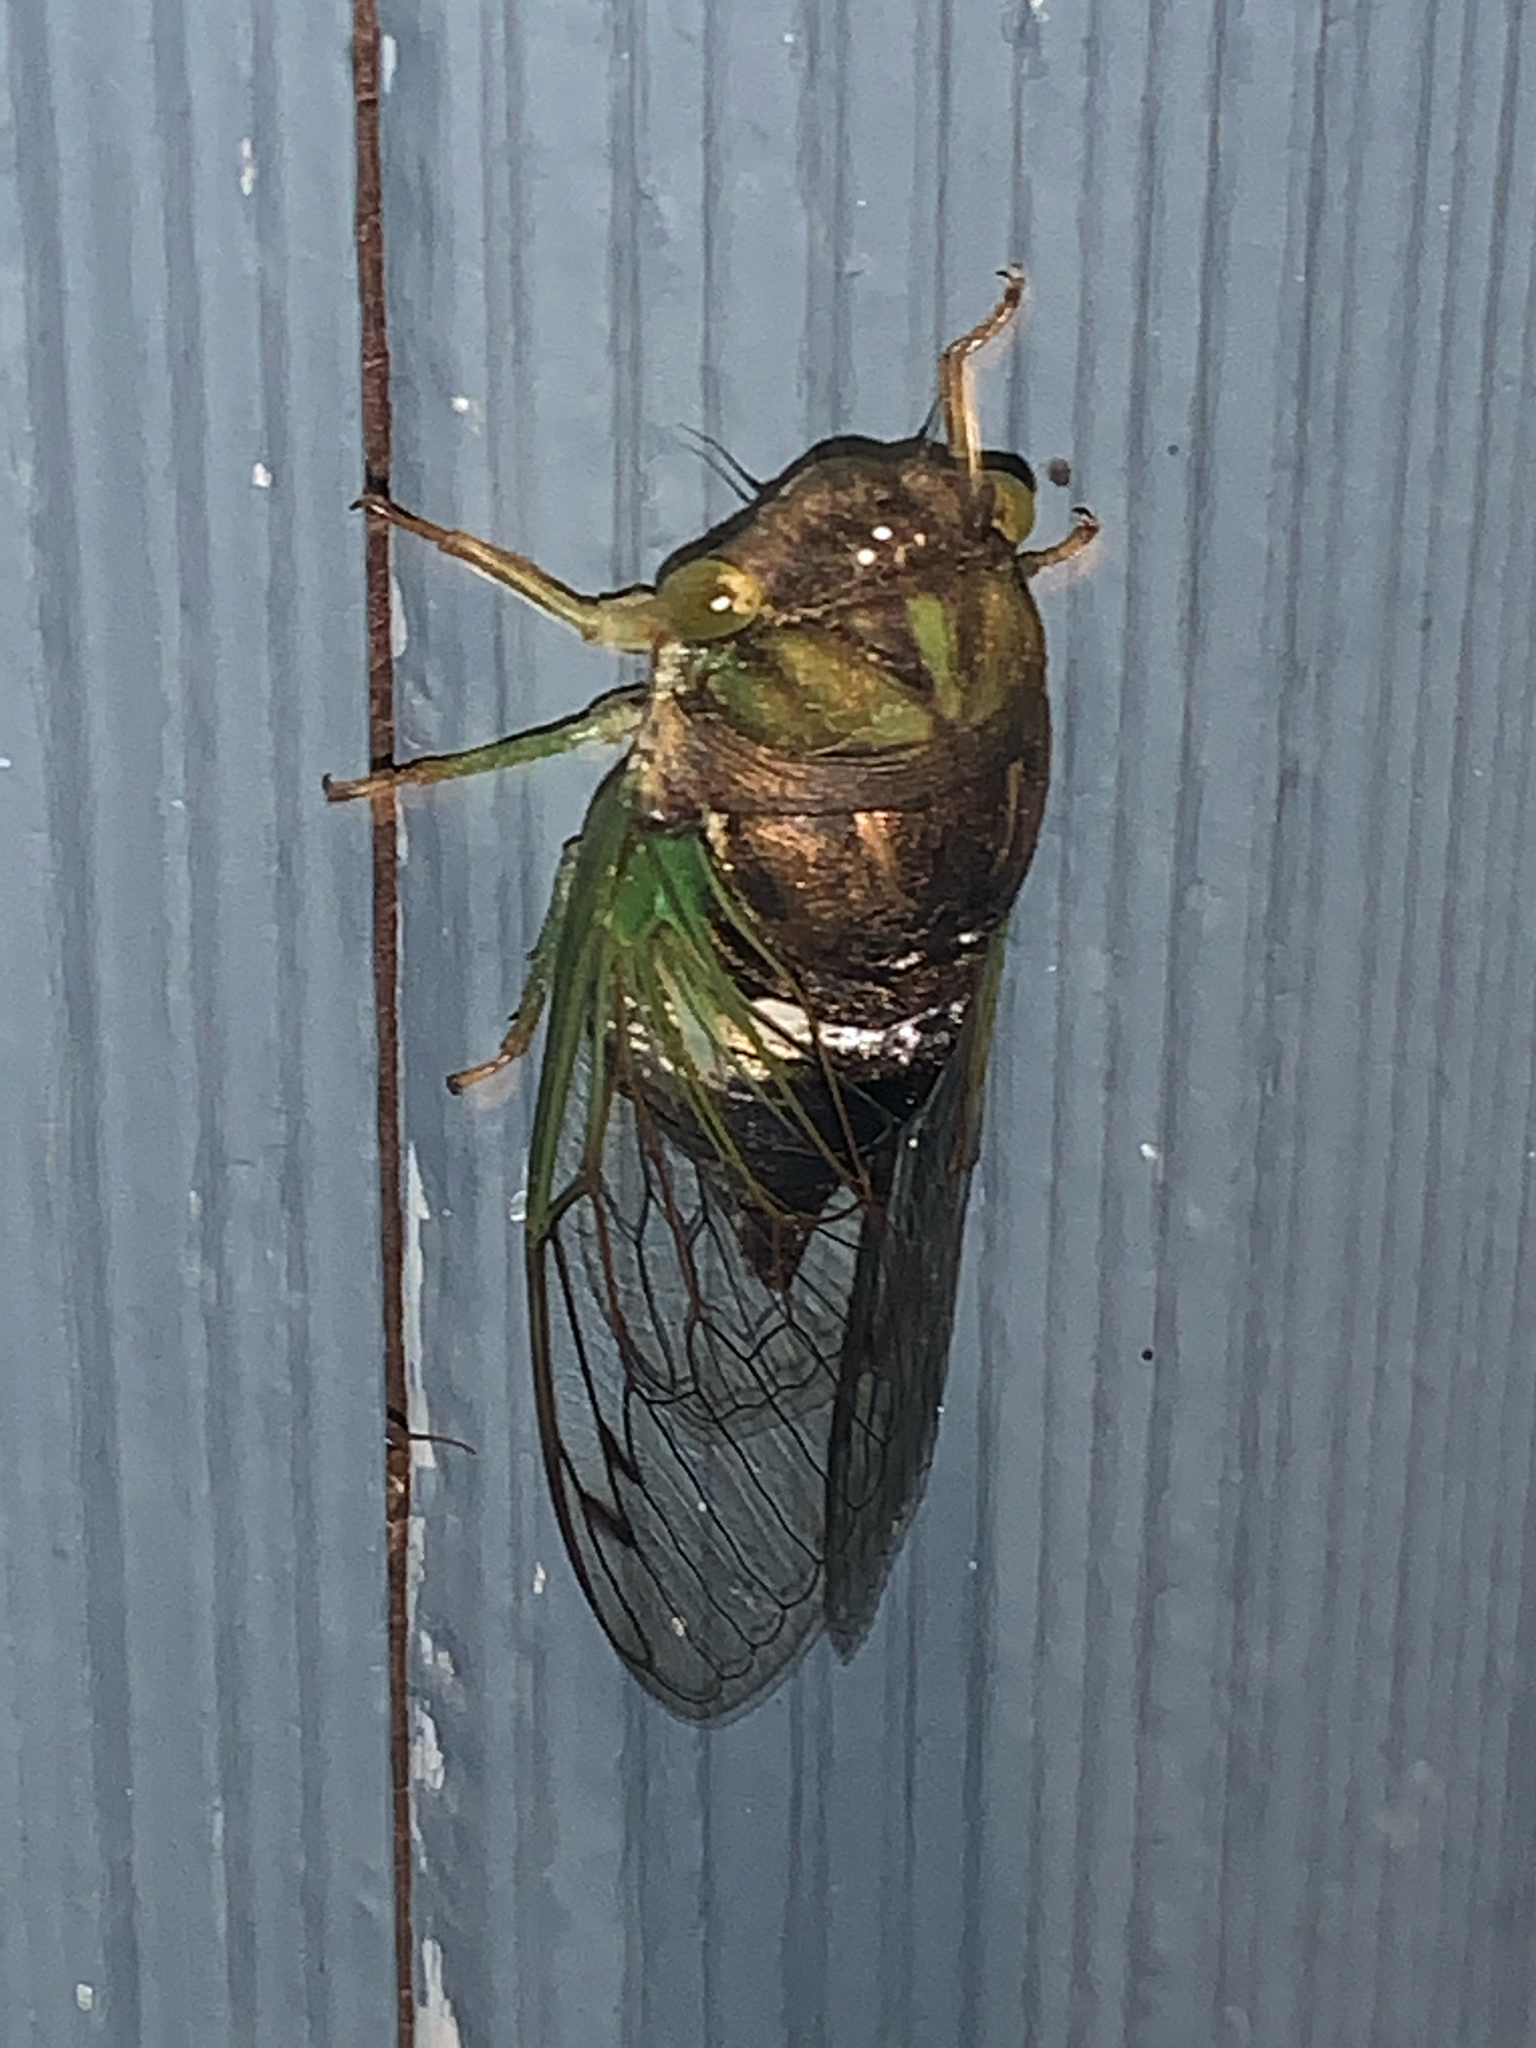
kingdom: Animalia
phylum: Arthropoda
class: Insecta
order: Hemiptera
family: Cicadidae
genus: Neotibicen
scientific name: Neotibicen tibicen
